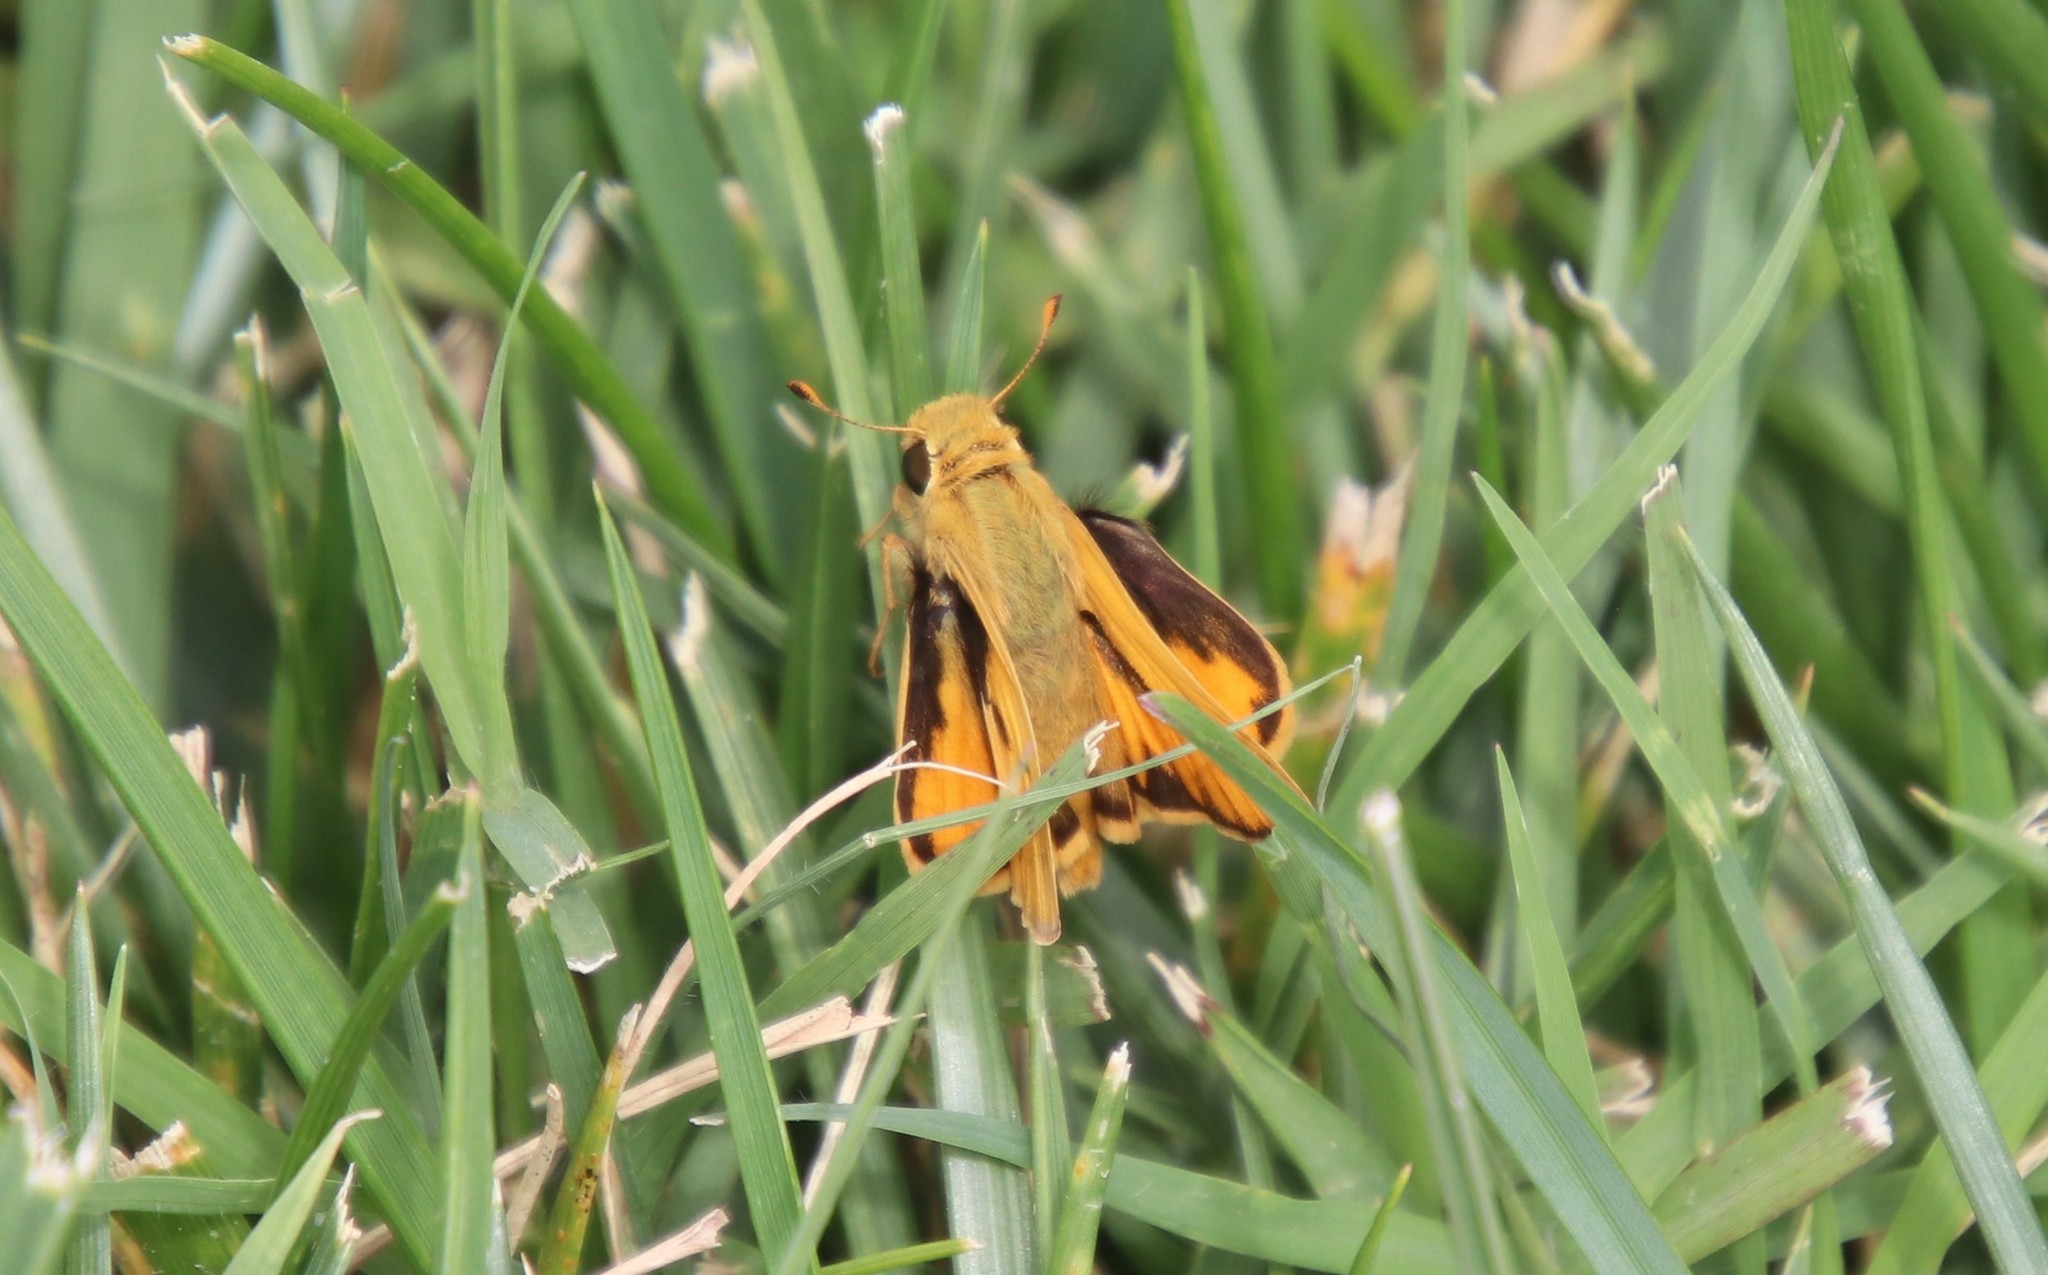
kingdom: Animalia
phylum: Arthropoda
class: Insecta
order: Lepidoptera
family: Hesperiidae
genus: Hylephila
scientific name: Hylephila phyleus
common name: Fiery skipper
